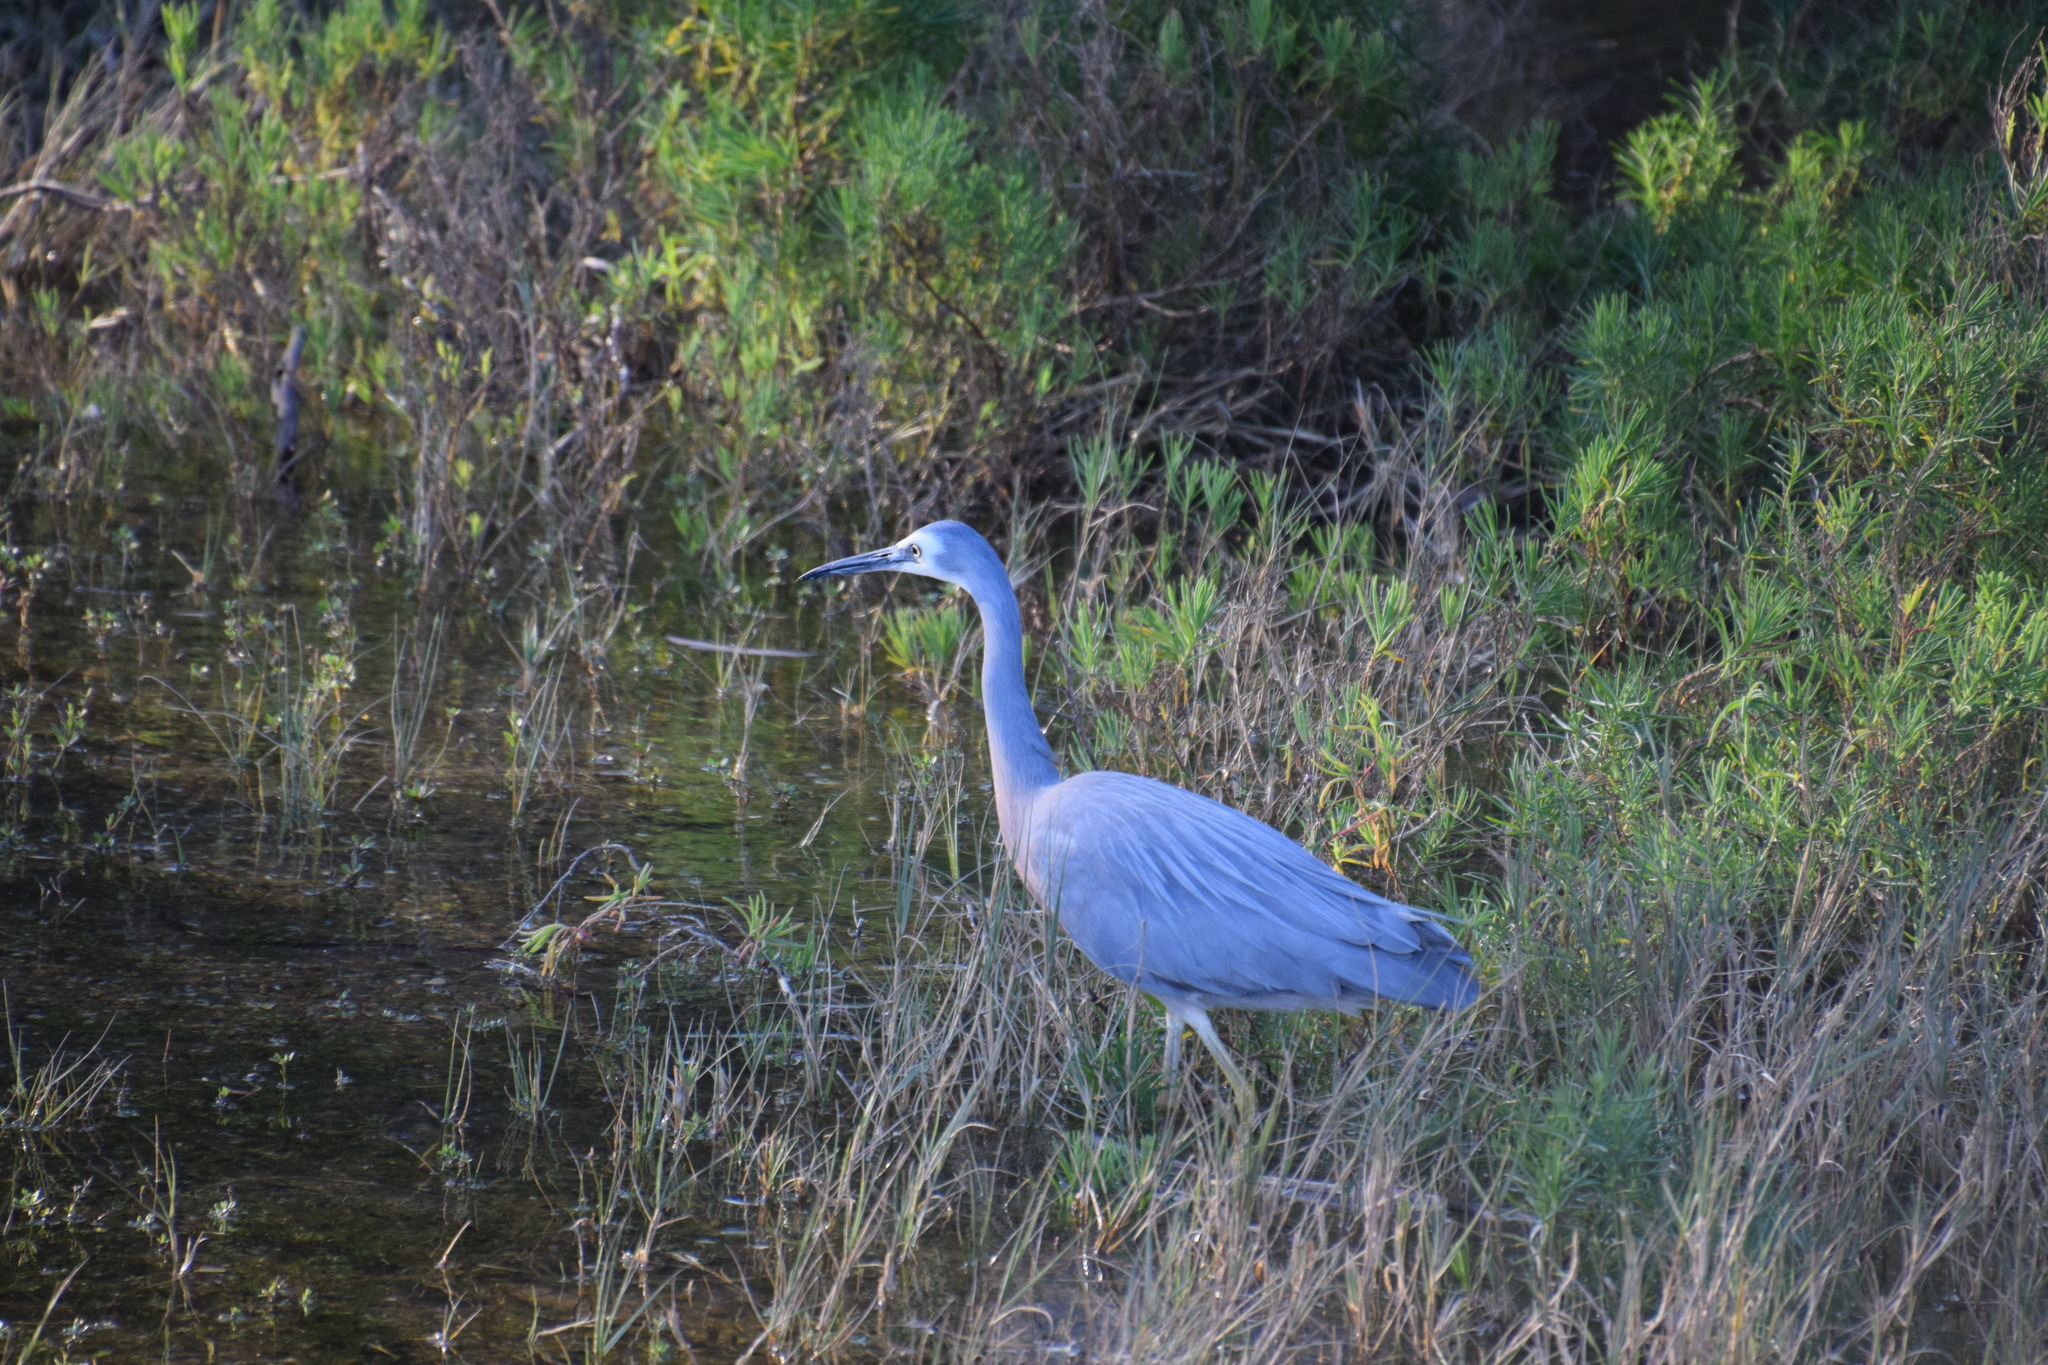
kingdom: Animalia
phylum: Chordata
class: Aves
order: Pelecaniformes
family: Ardeidae
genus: Egretta
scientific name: Egretta novaehollandiae
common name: White-faced heron
